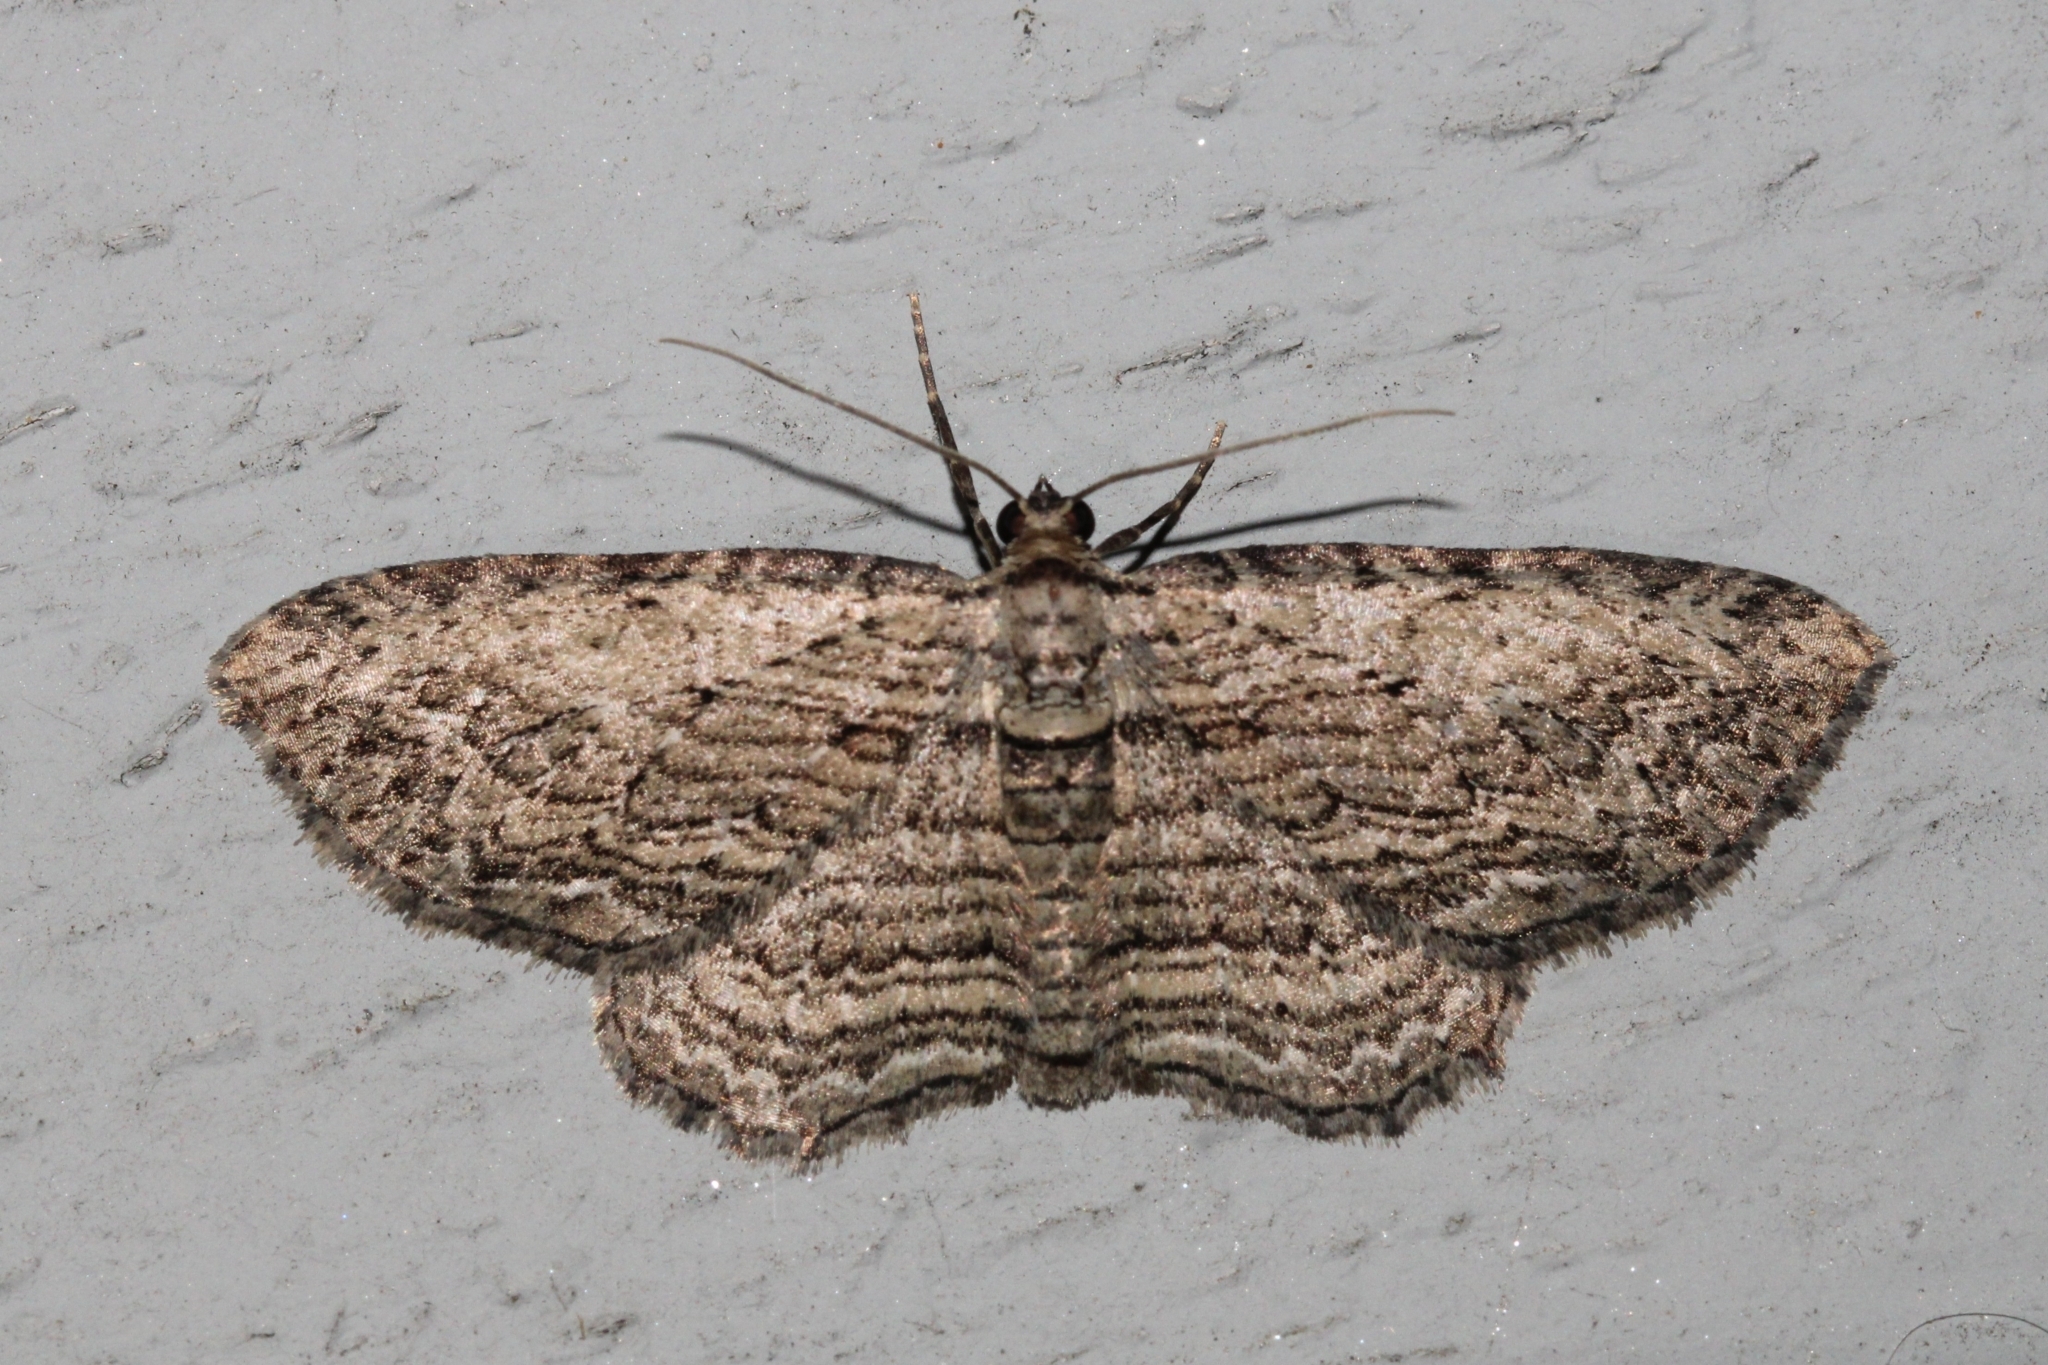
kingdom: Animalia
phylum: Arthropoda
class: Insecta
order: Lepidoptera
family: Geometridae
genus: Horisme
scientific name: Horisme intestinata
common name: Brown bark carpet
